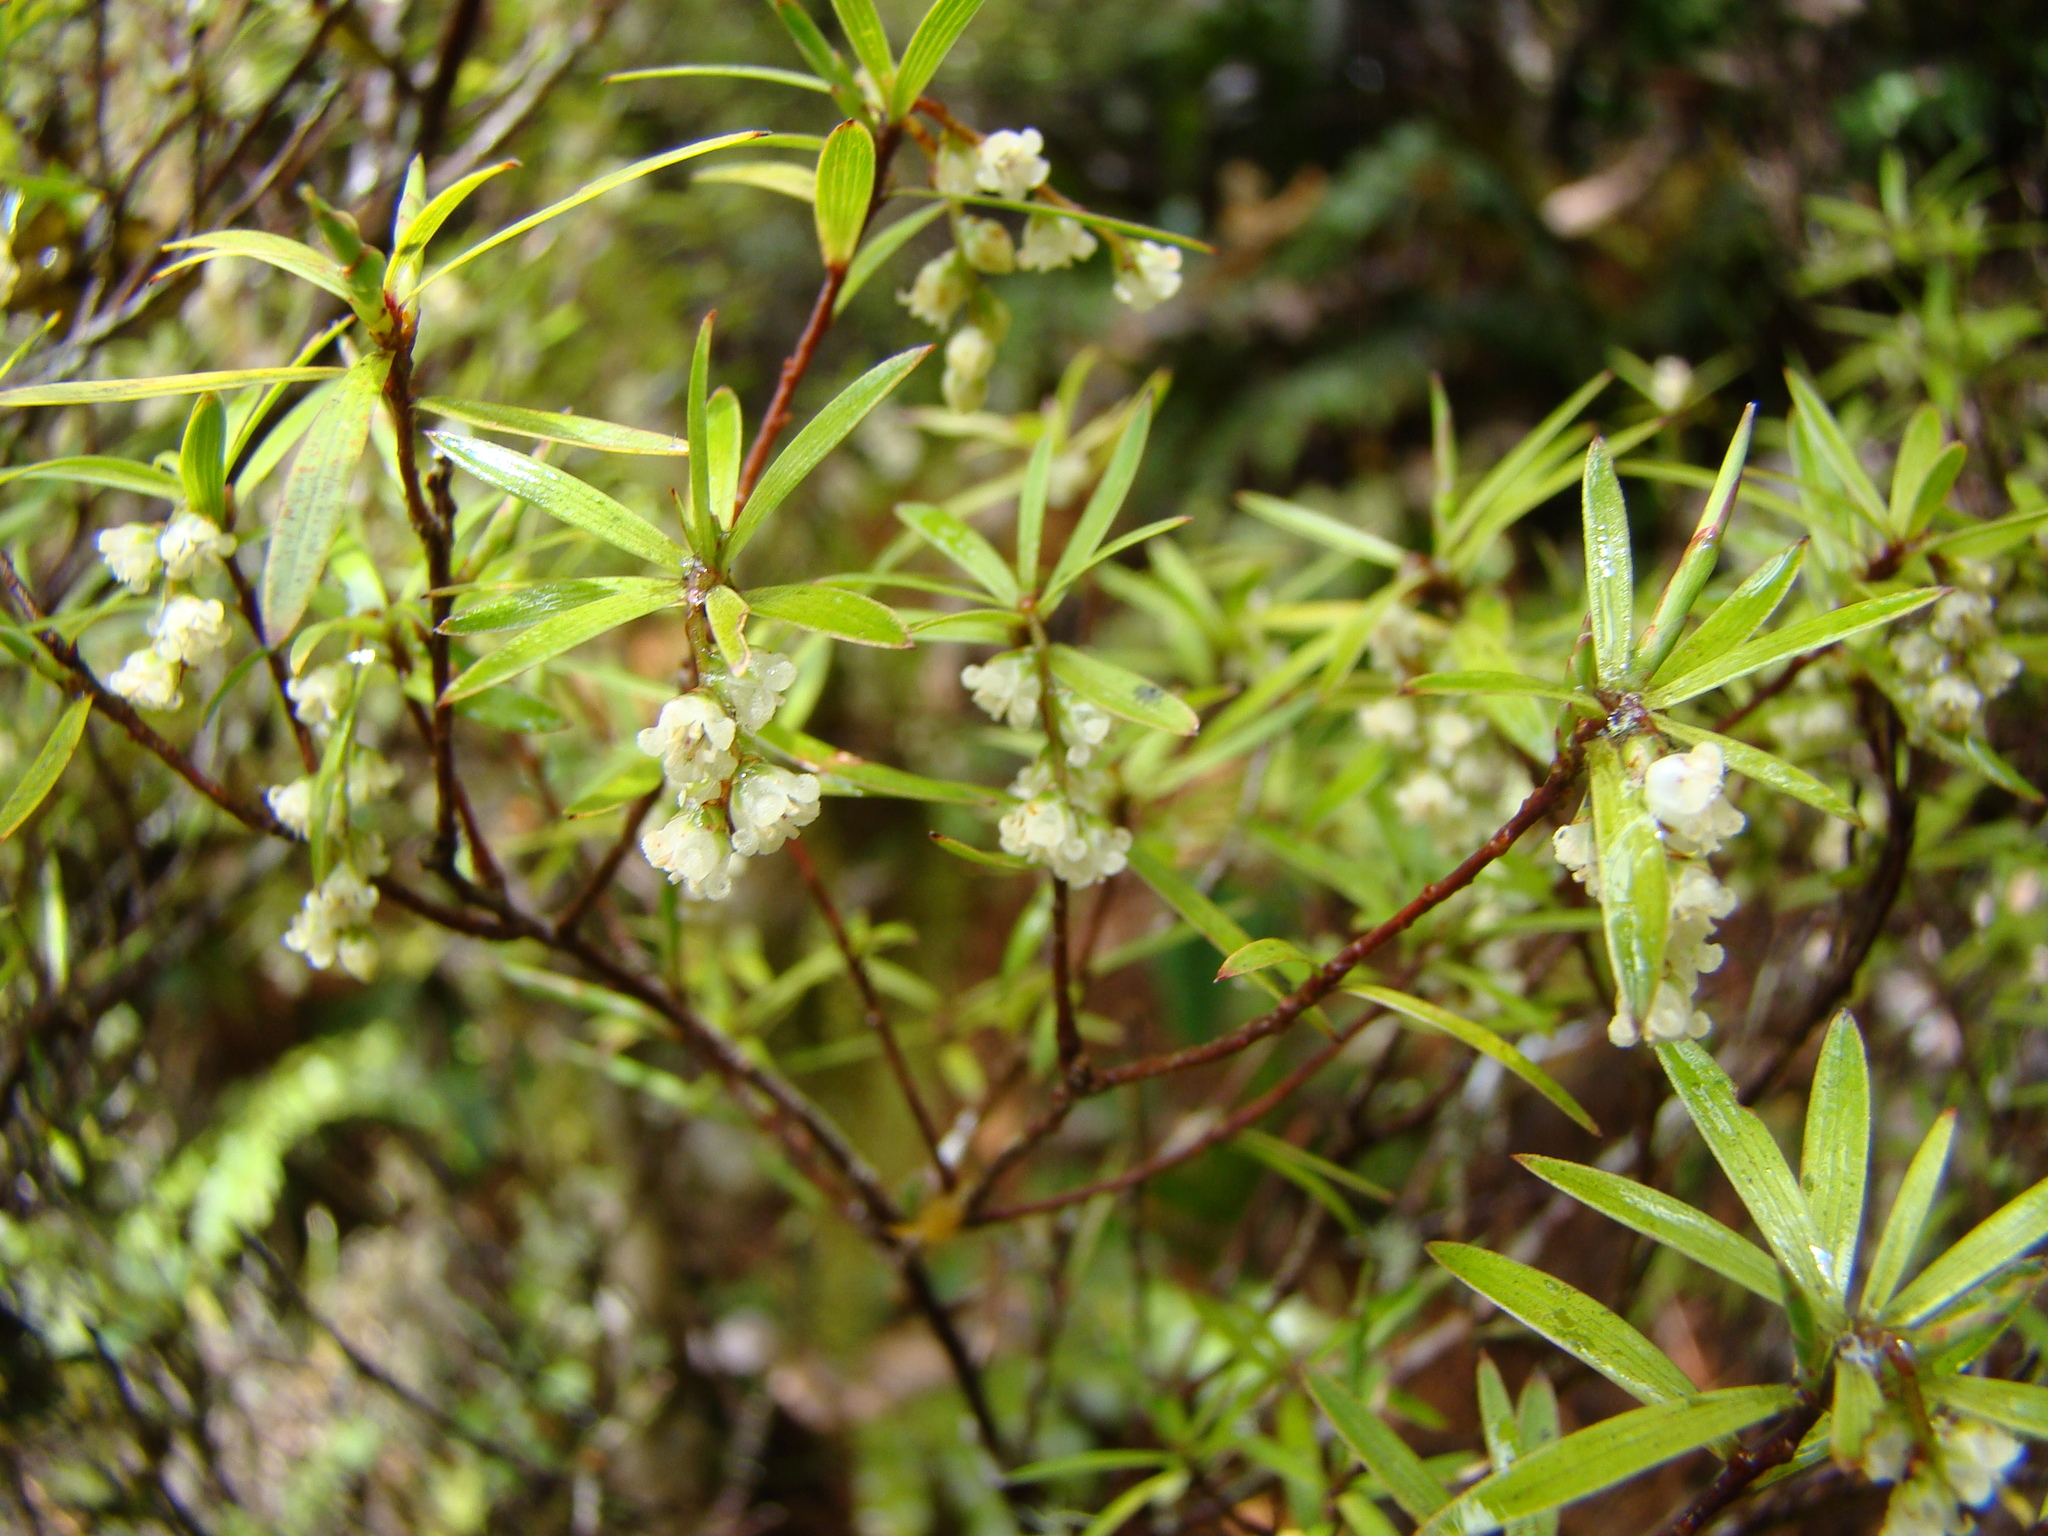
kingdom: Plantae
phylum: Tracheophyta
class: Magnoliopsida
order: Ericales
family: Ericaceae
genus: Leucopogon
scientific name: Leucopogon fasciculatus
